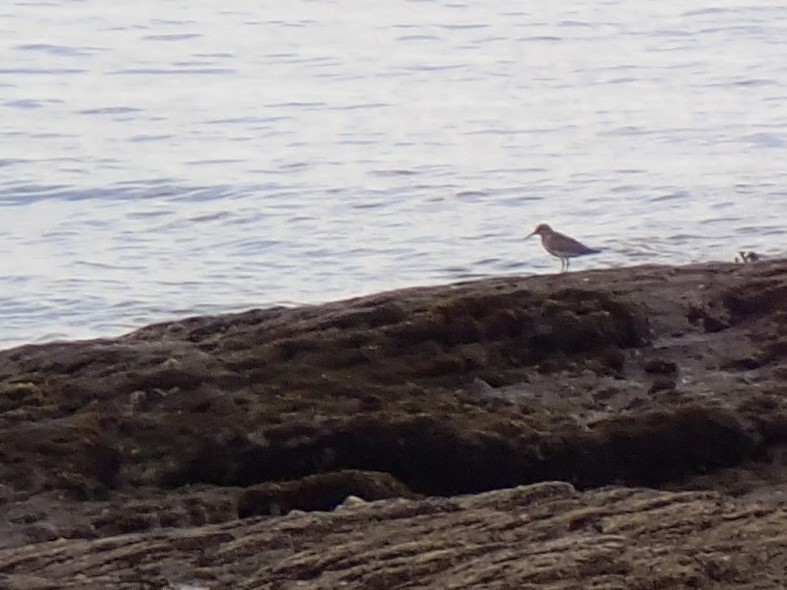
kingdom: Animalia
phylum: Chordata
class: Aves
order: Charadriiformes
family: Scolopacidae
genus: Calidris
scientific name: Calidris alpina
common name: Dunlin
